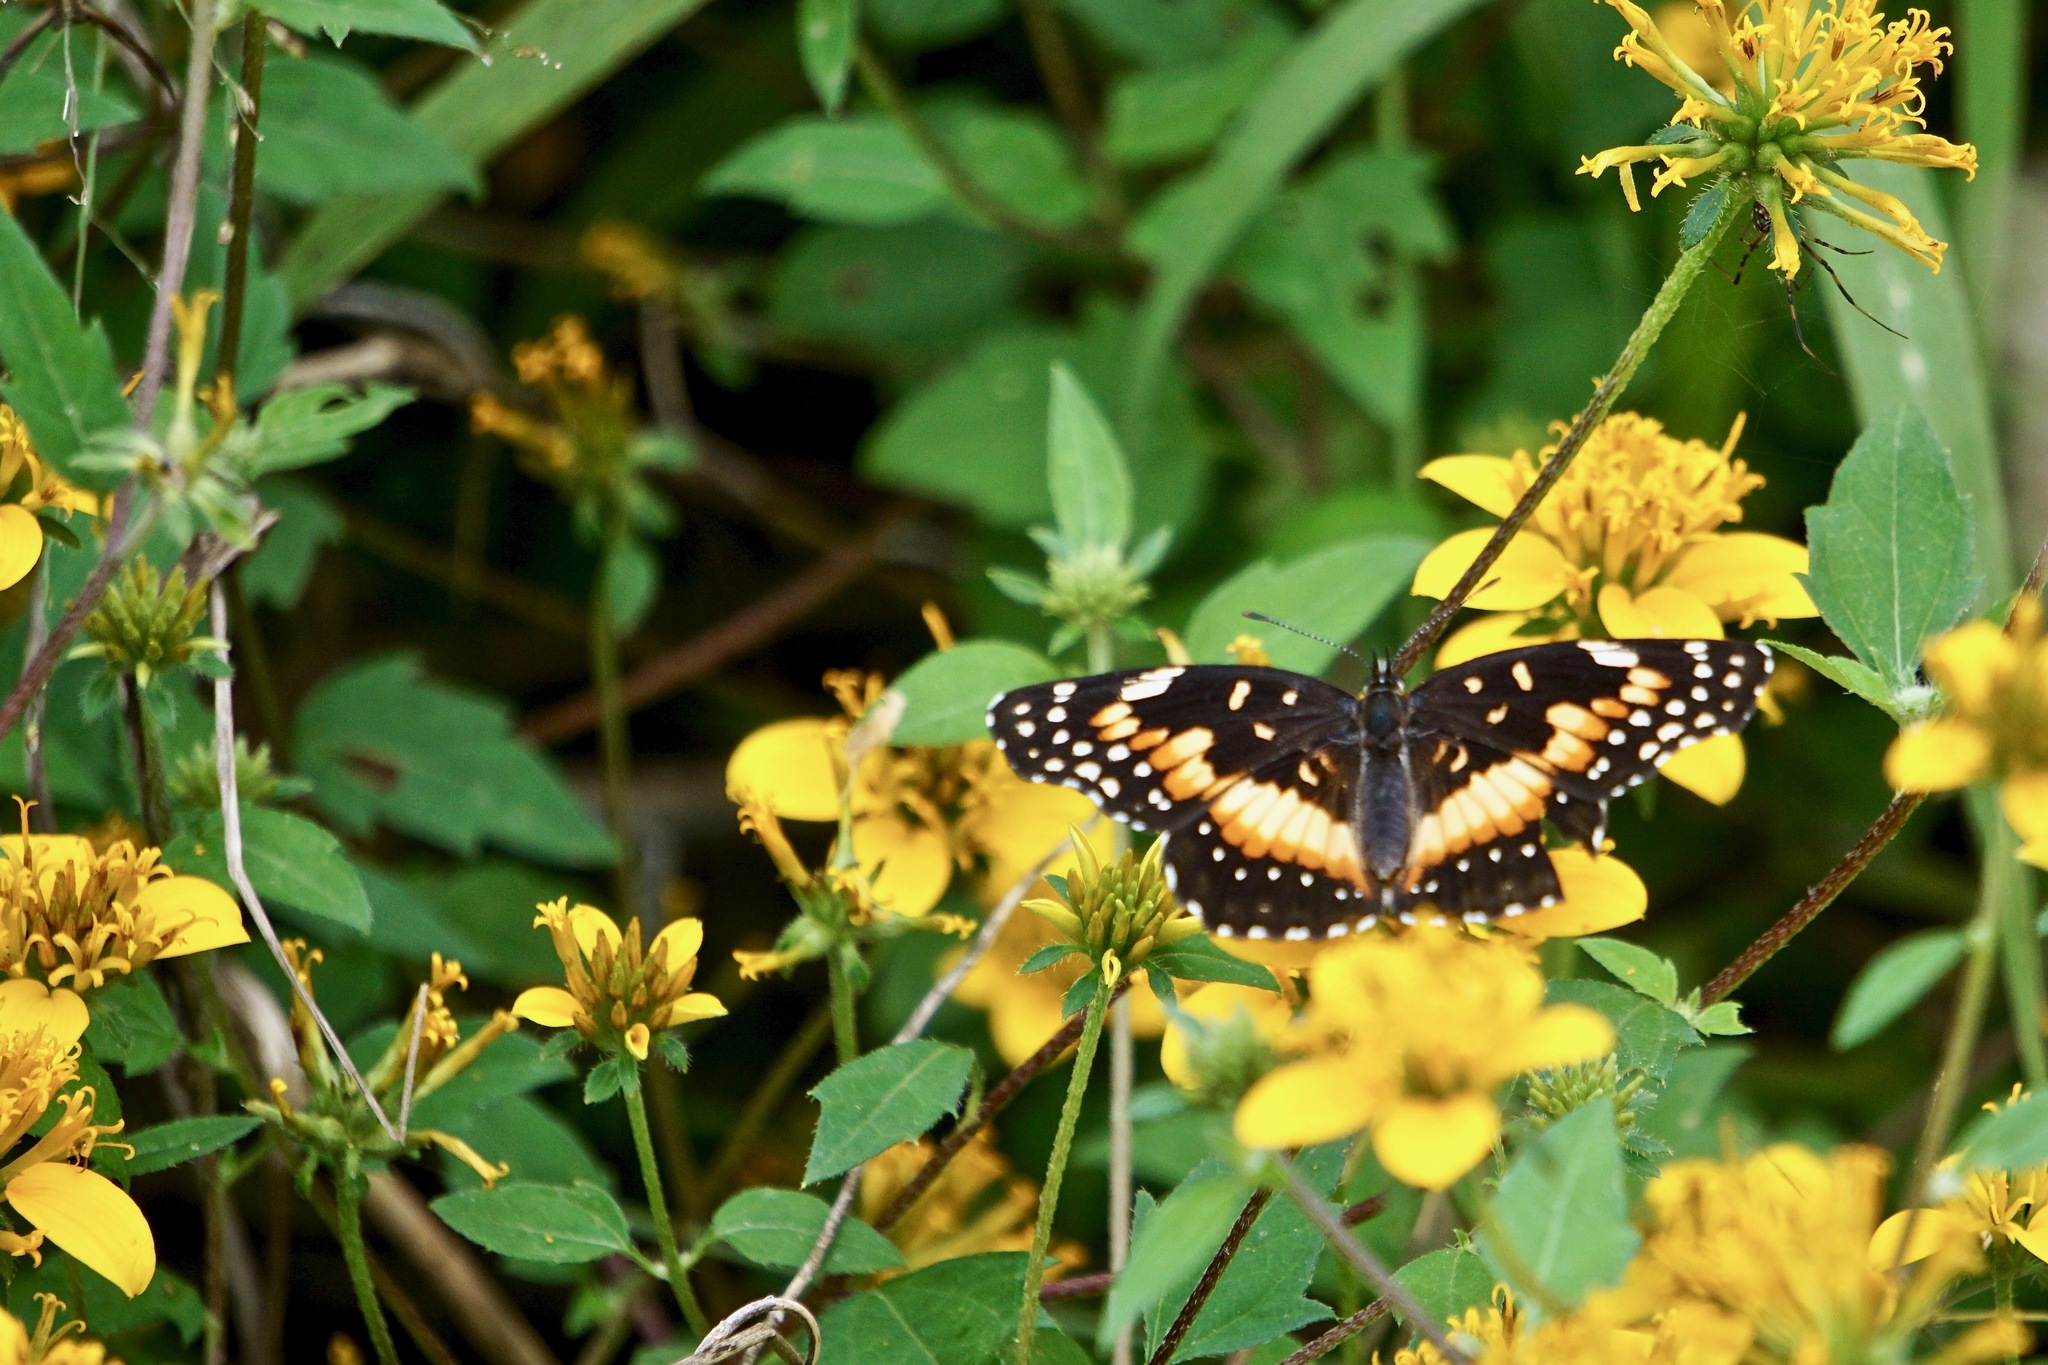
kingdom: Animalia
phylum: Arthropoda
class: Insecta
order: Lepidoptera
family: Nymphalidae
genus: Chlosyne
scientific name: Chlosyne lacinia
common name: Bordered patch
